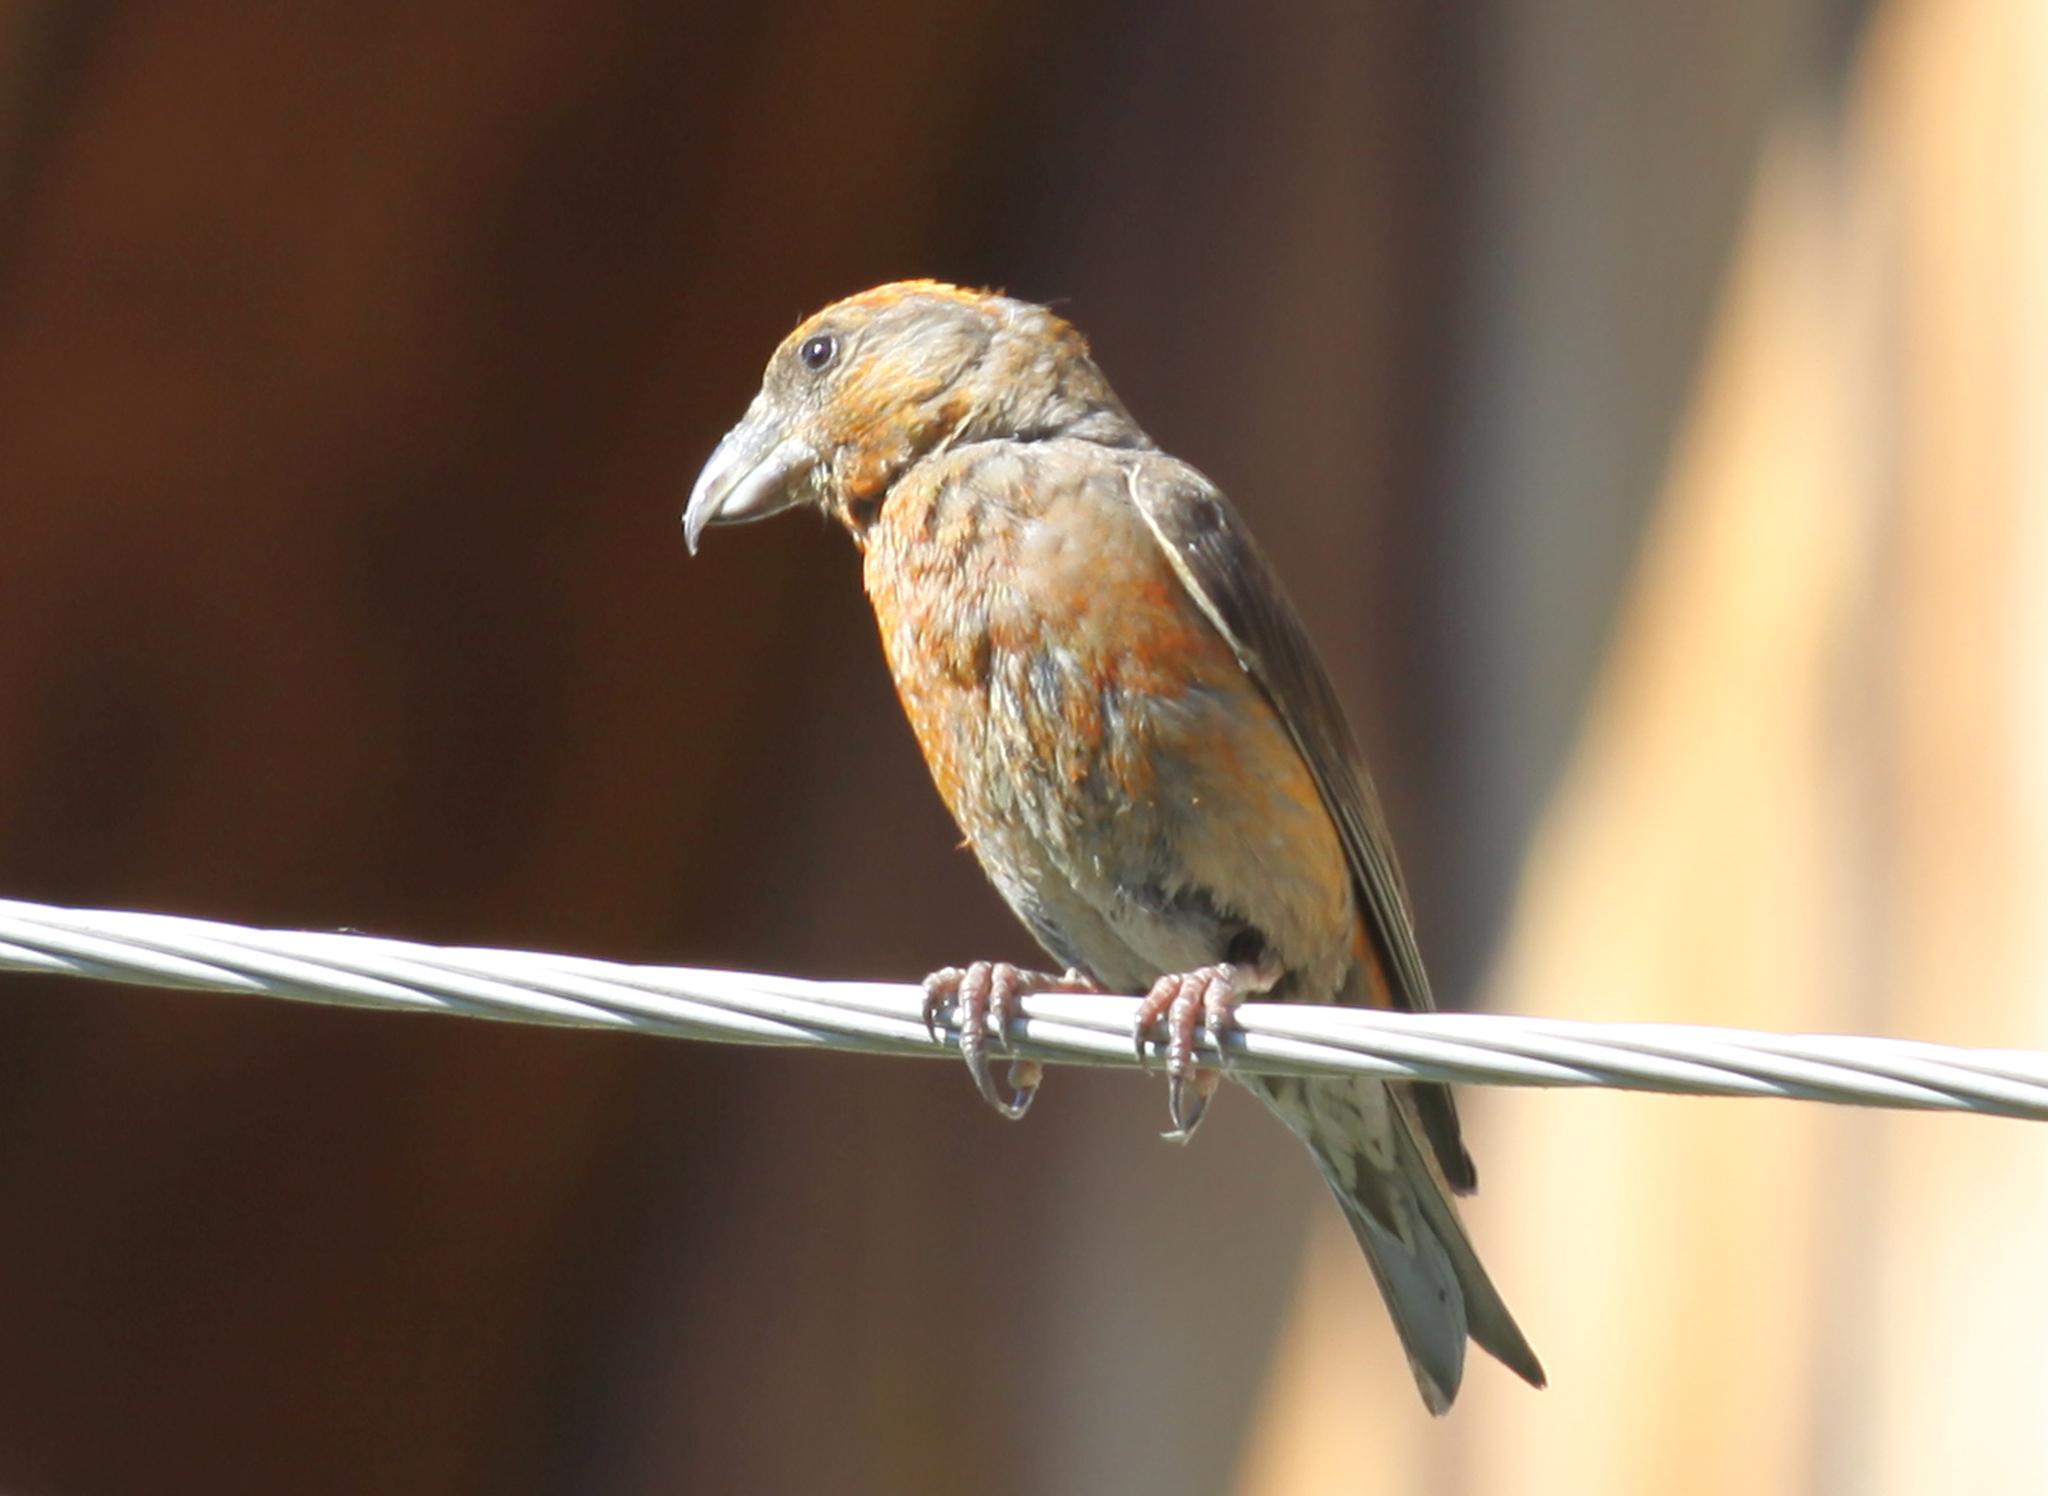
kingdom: Animalia
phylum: Chordata
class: Aves
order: Passeriformes
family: Fringillidae
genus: Loxia
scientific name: Loxia curvirostra
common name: Red crossbill
